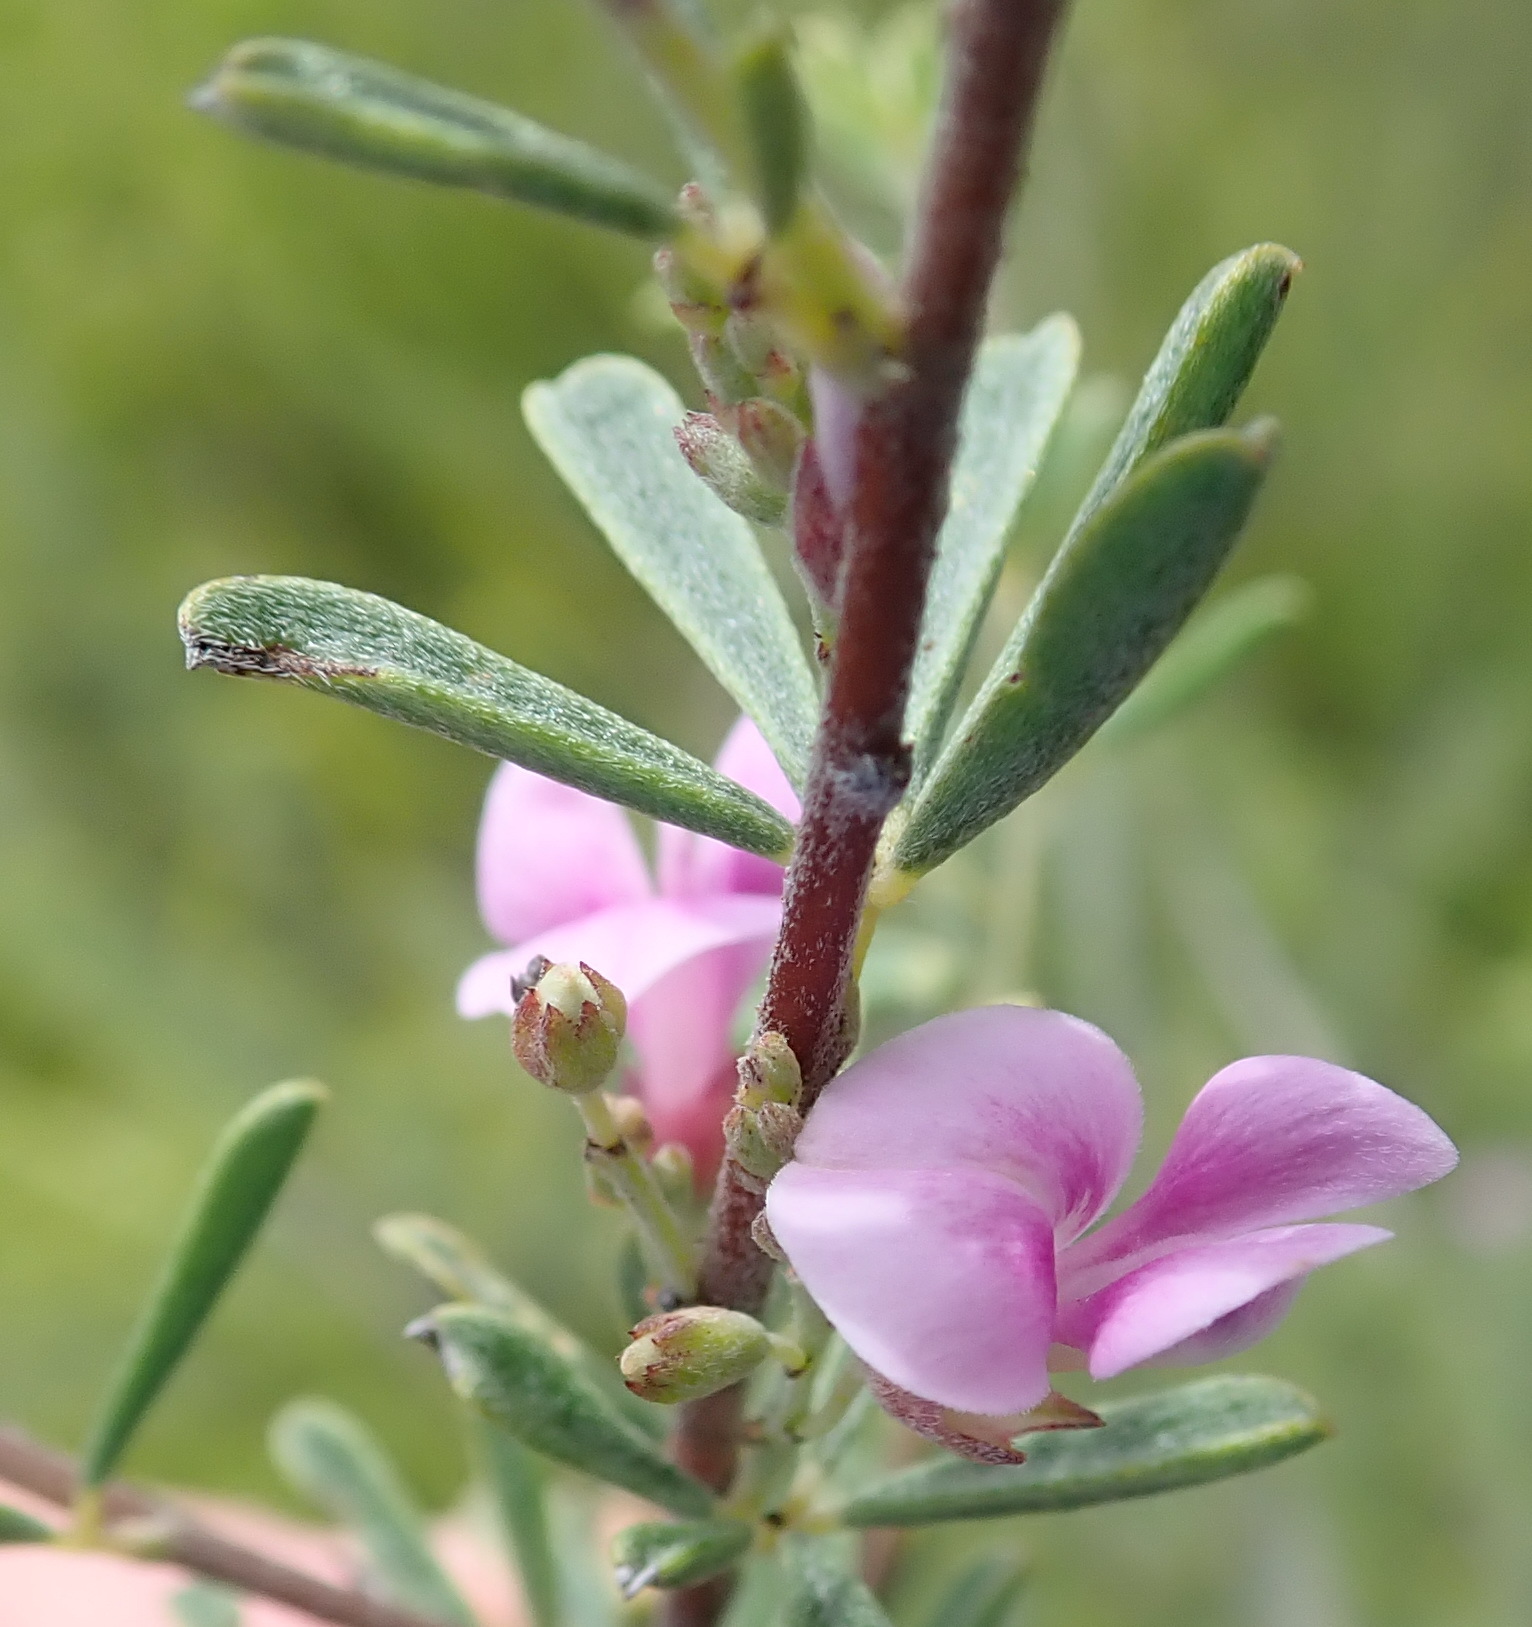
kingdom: Plantae
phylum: Tracheophyta
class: Magnoliopsida
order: Fabales
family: Fabaceae
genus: Indigofera
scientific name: Indigofera flabellata
